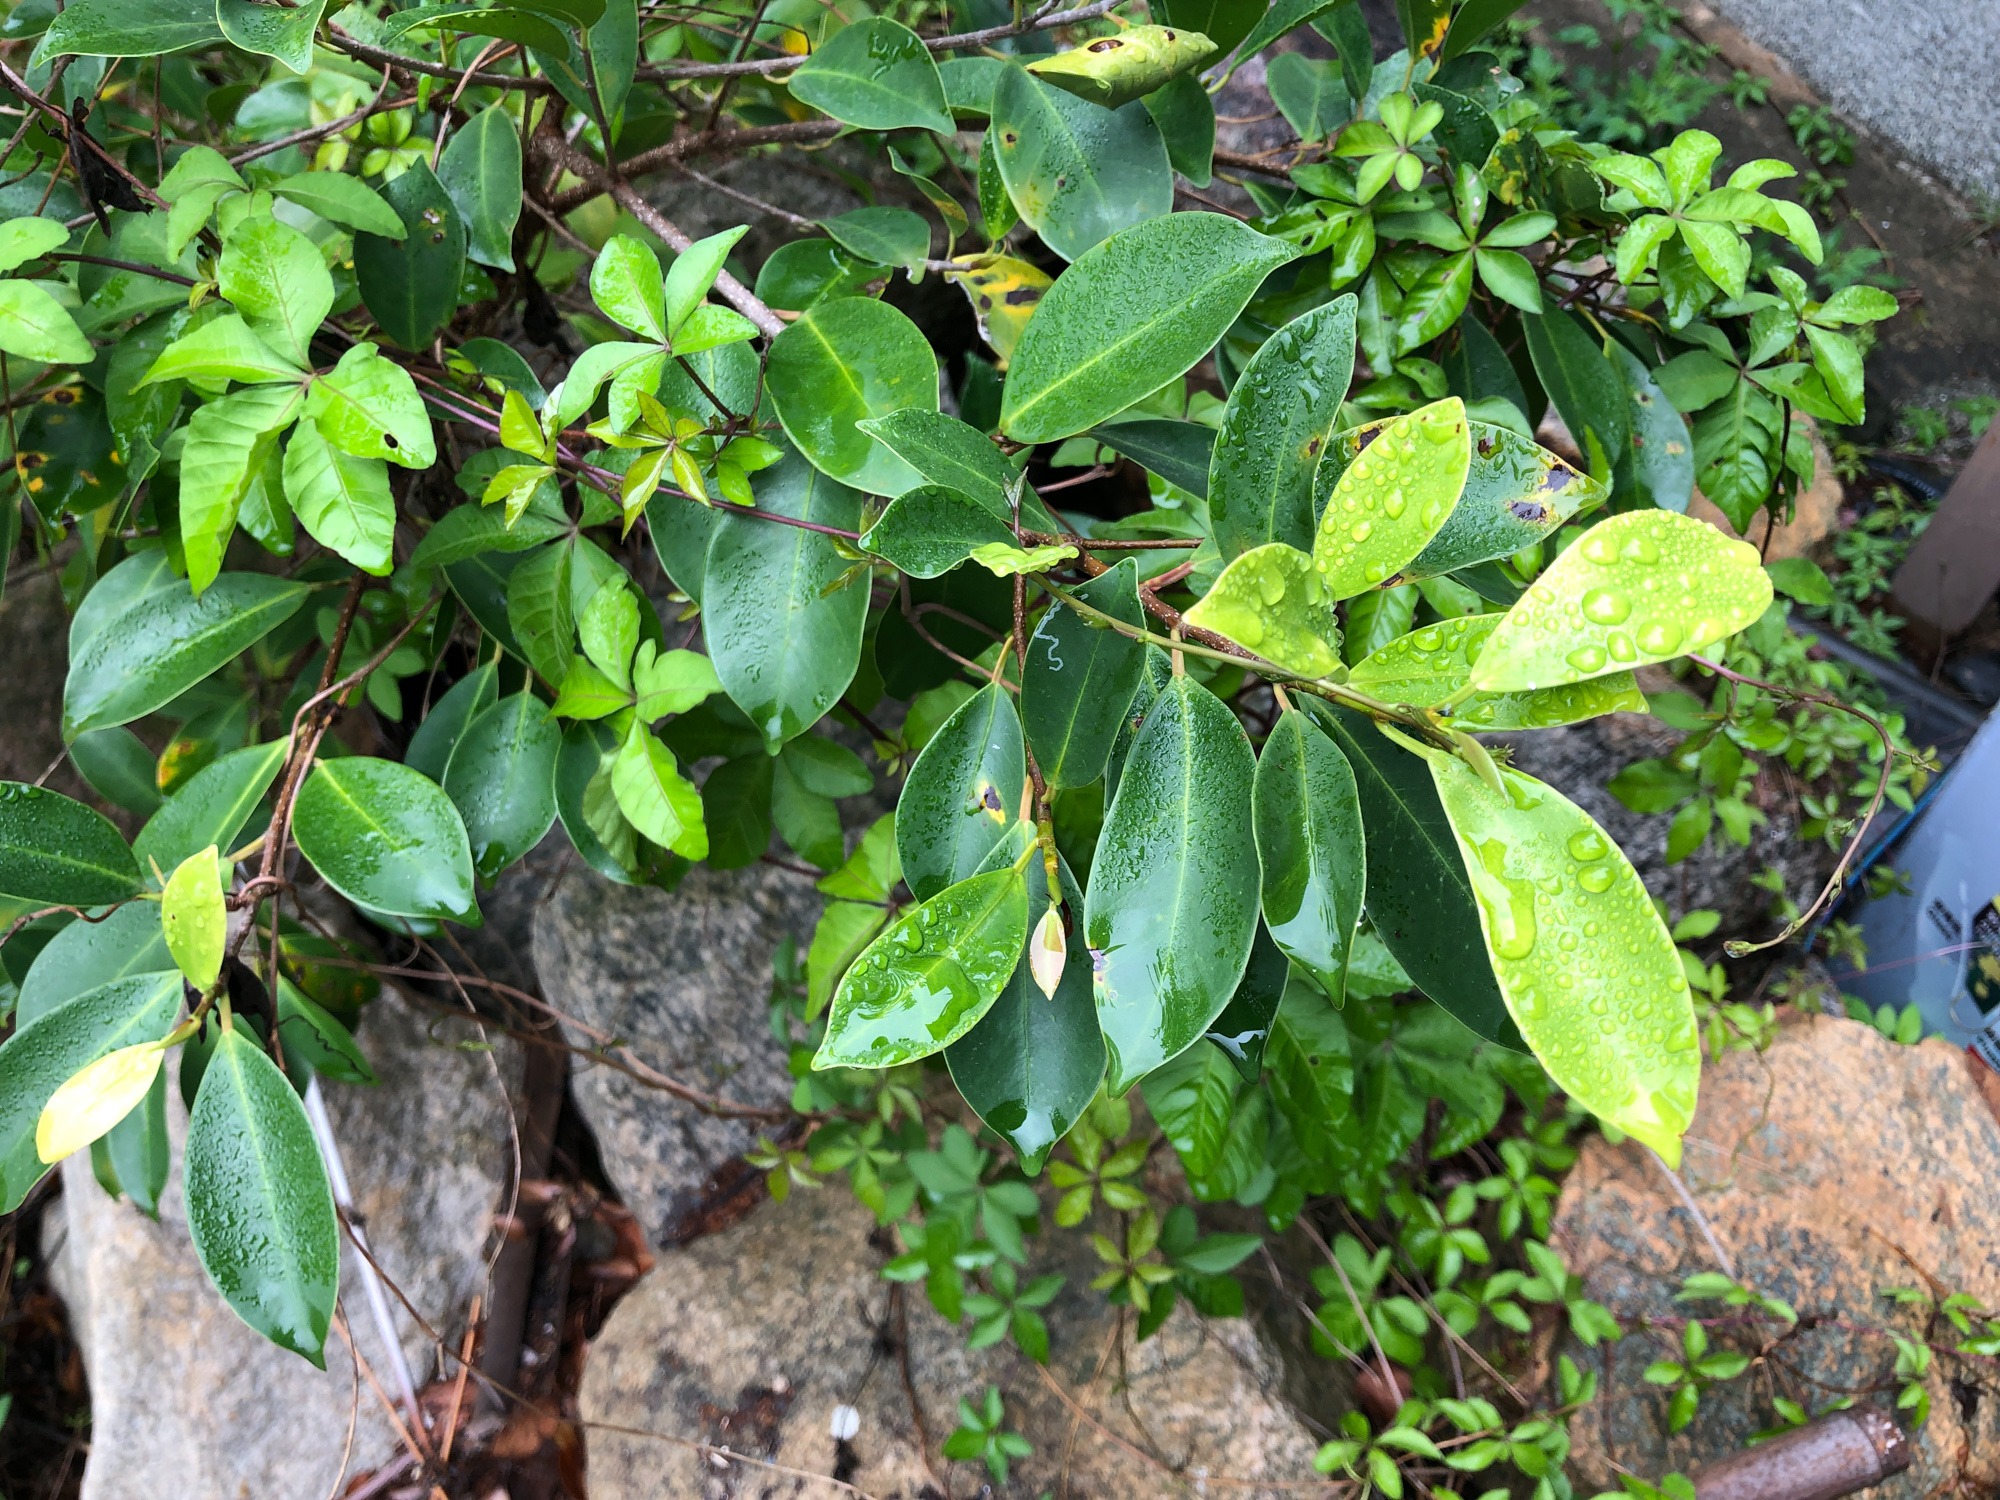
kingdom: Plantae
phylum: Tracheophyta
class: Magnoliopsida
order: Rosales
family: Moraceae
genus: Ficus
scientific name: Ficus microcarpa
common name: Chinese banyan
